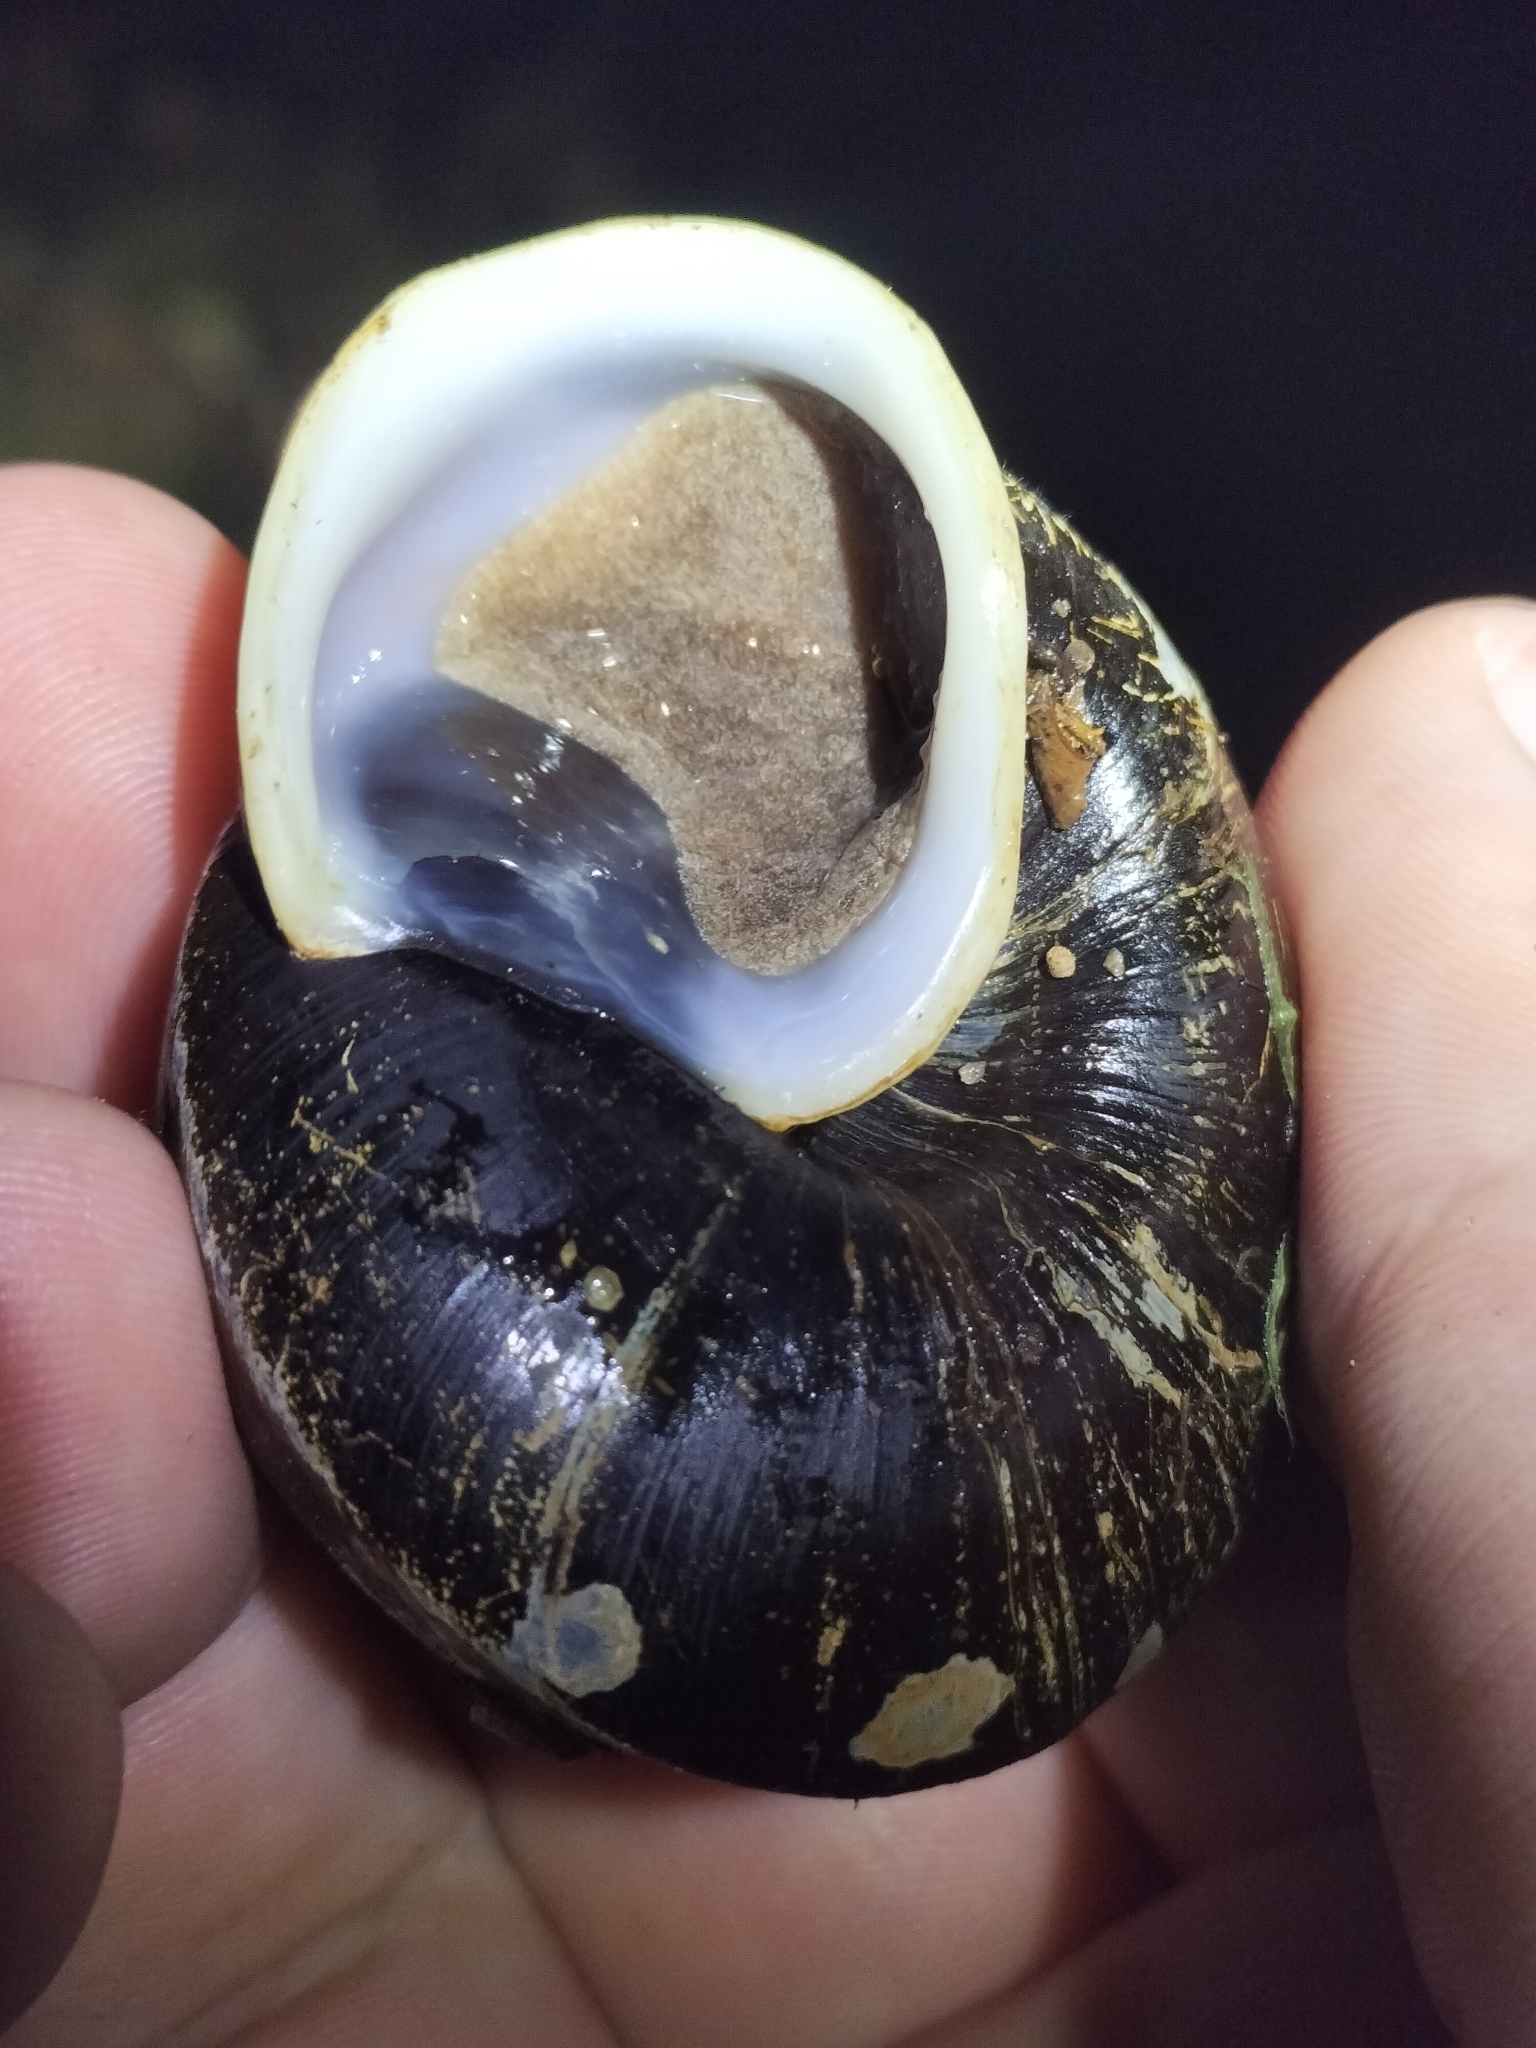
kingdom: Animalia
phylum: Mollusca
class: Gastropoda
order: Stylommatophora
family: Camaenidae
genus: Hadra
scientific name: Hadra webbi
